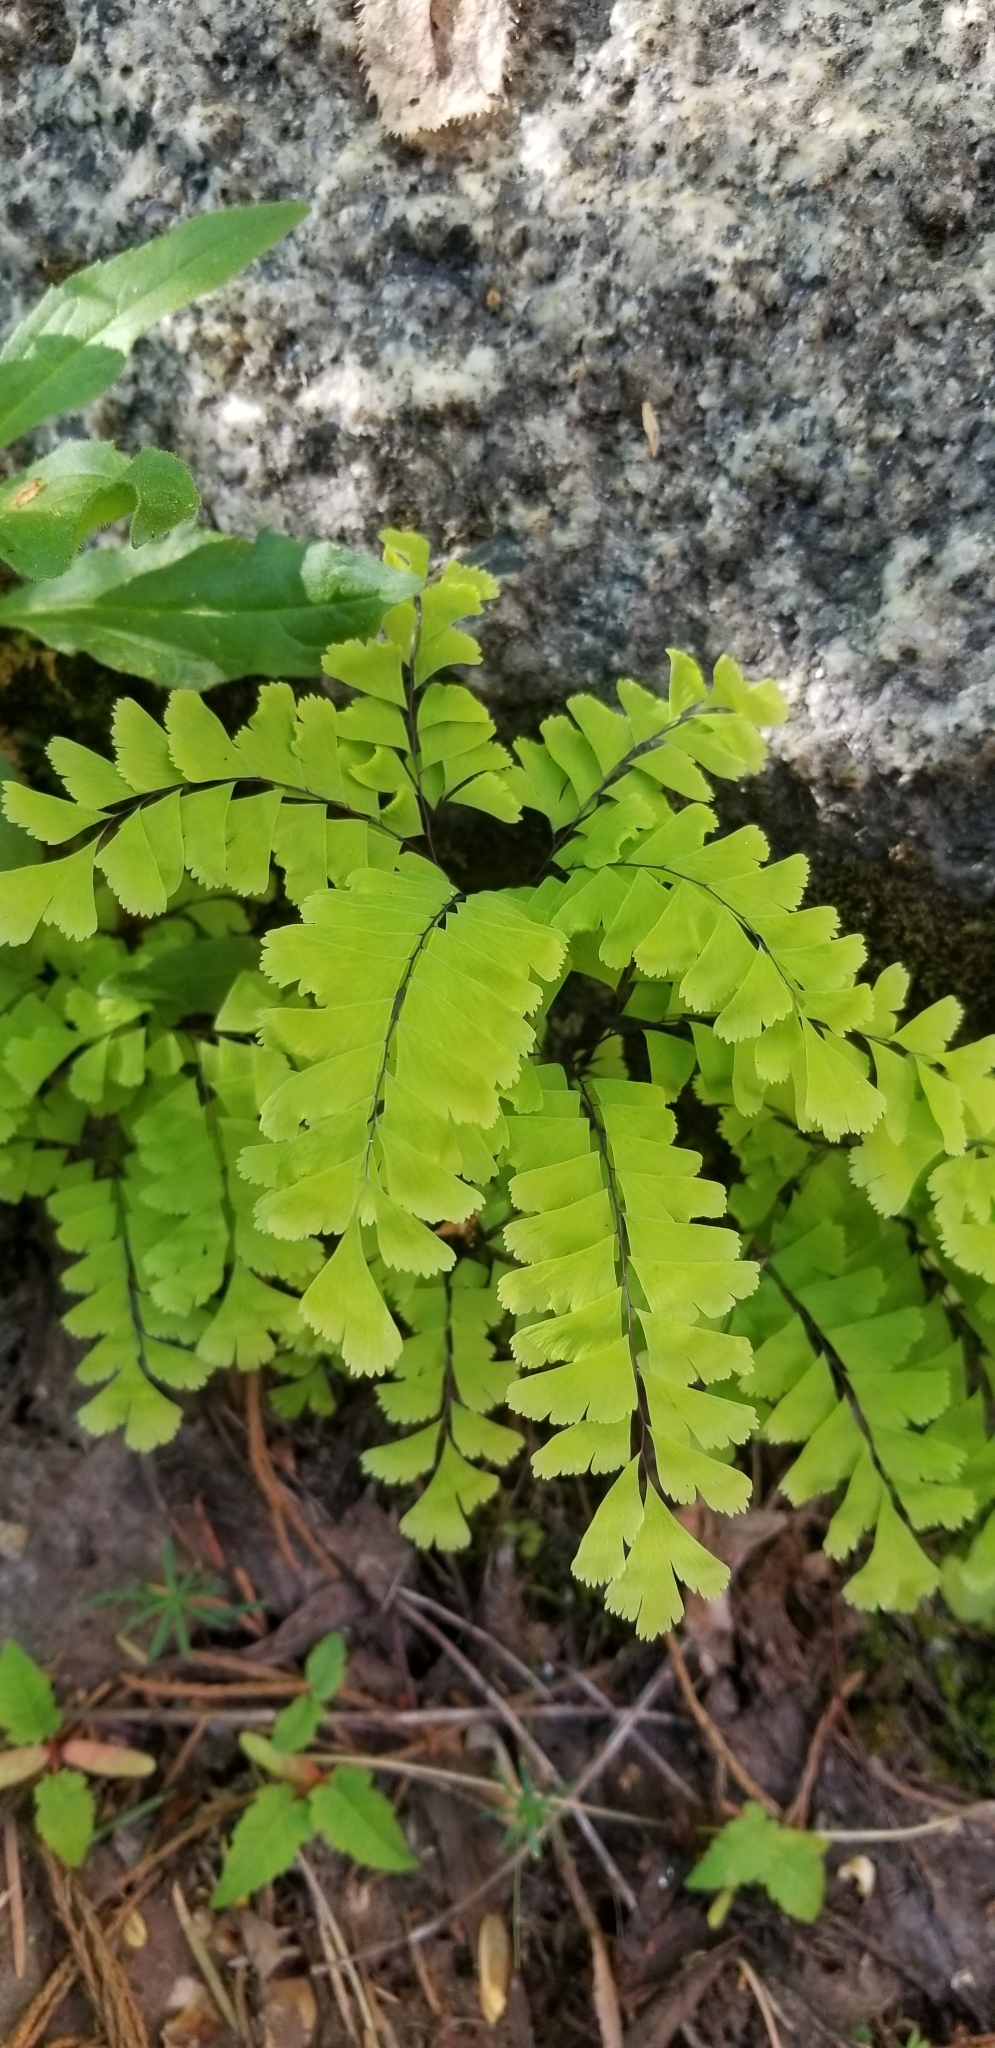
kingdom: Plantae
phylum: Tracheophyta
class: Polypodiopsida
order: Polypodiales
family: Pteridaceae
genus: Adiantum
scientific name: Adiantum aleuticum
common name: Aleutian maidenhair fern
